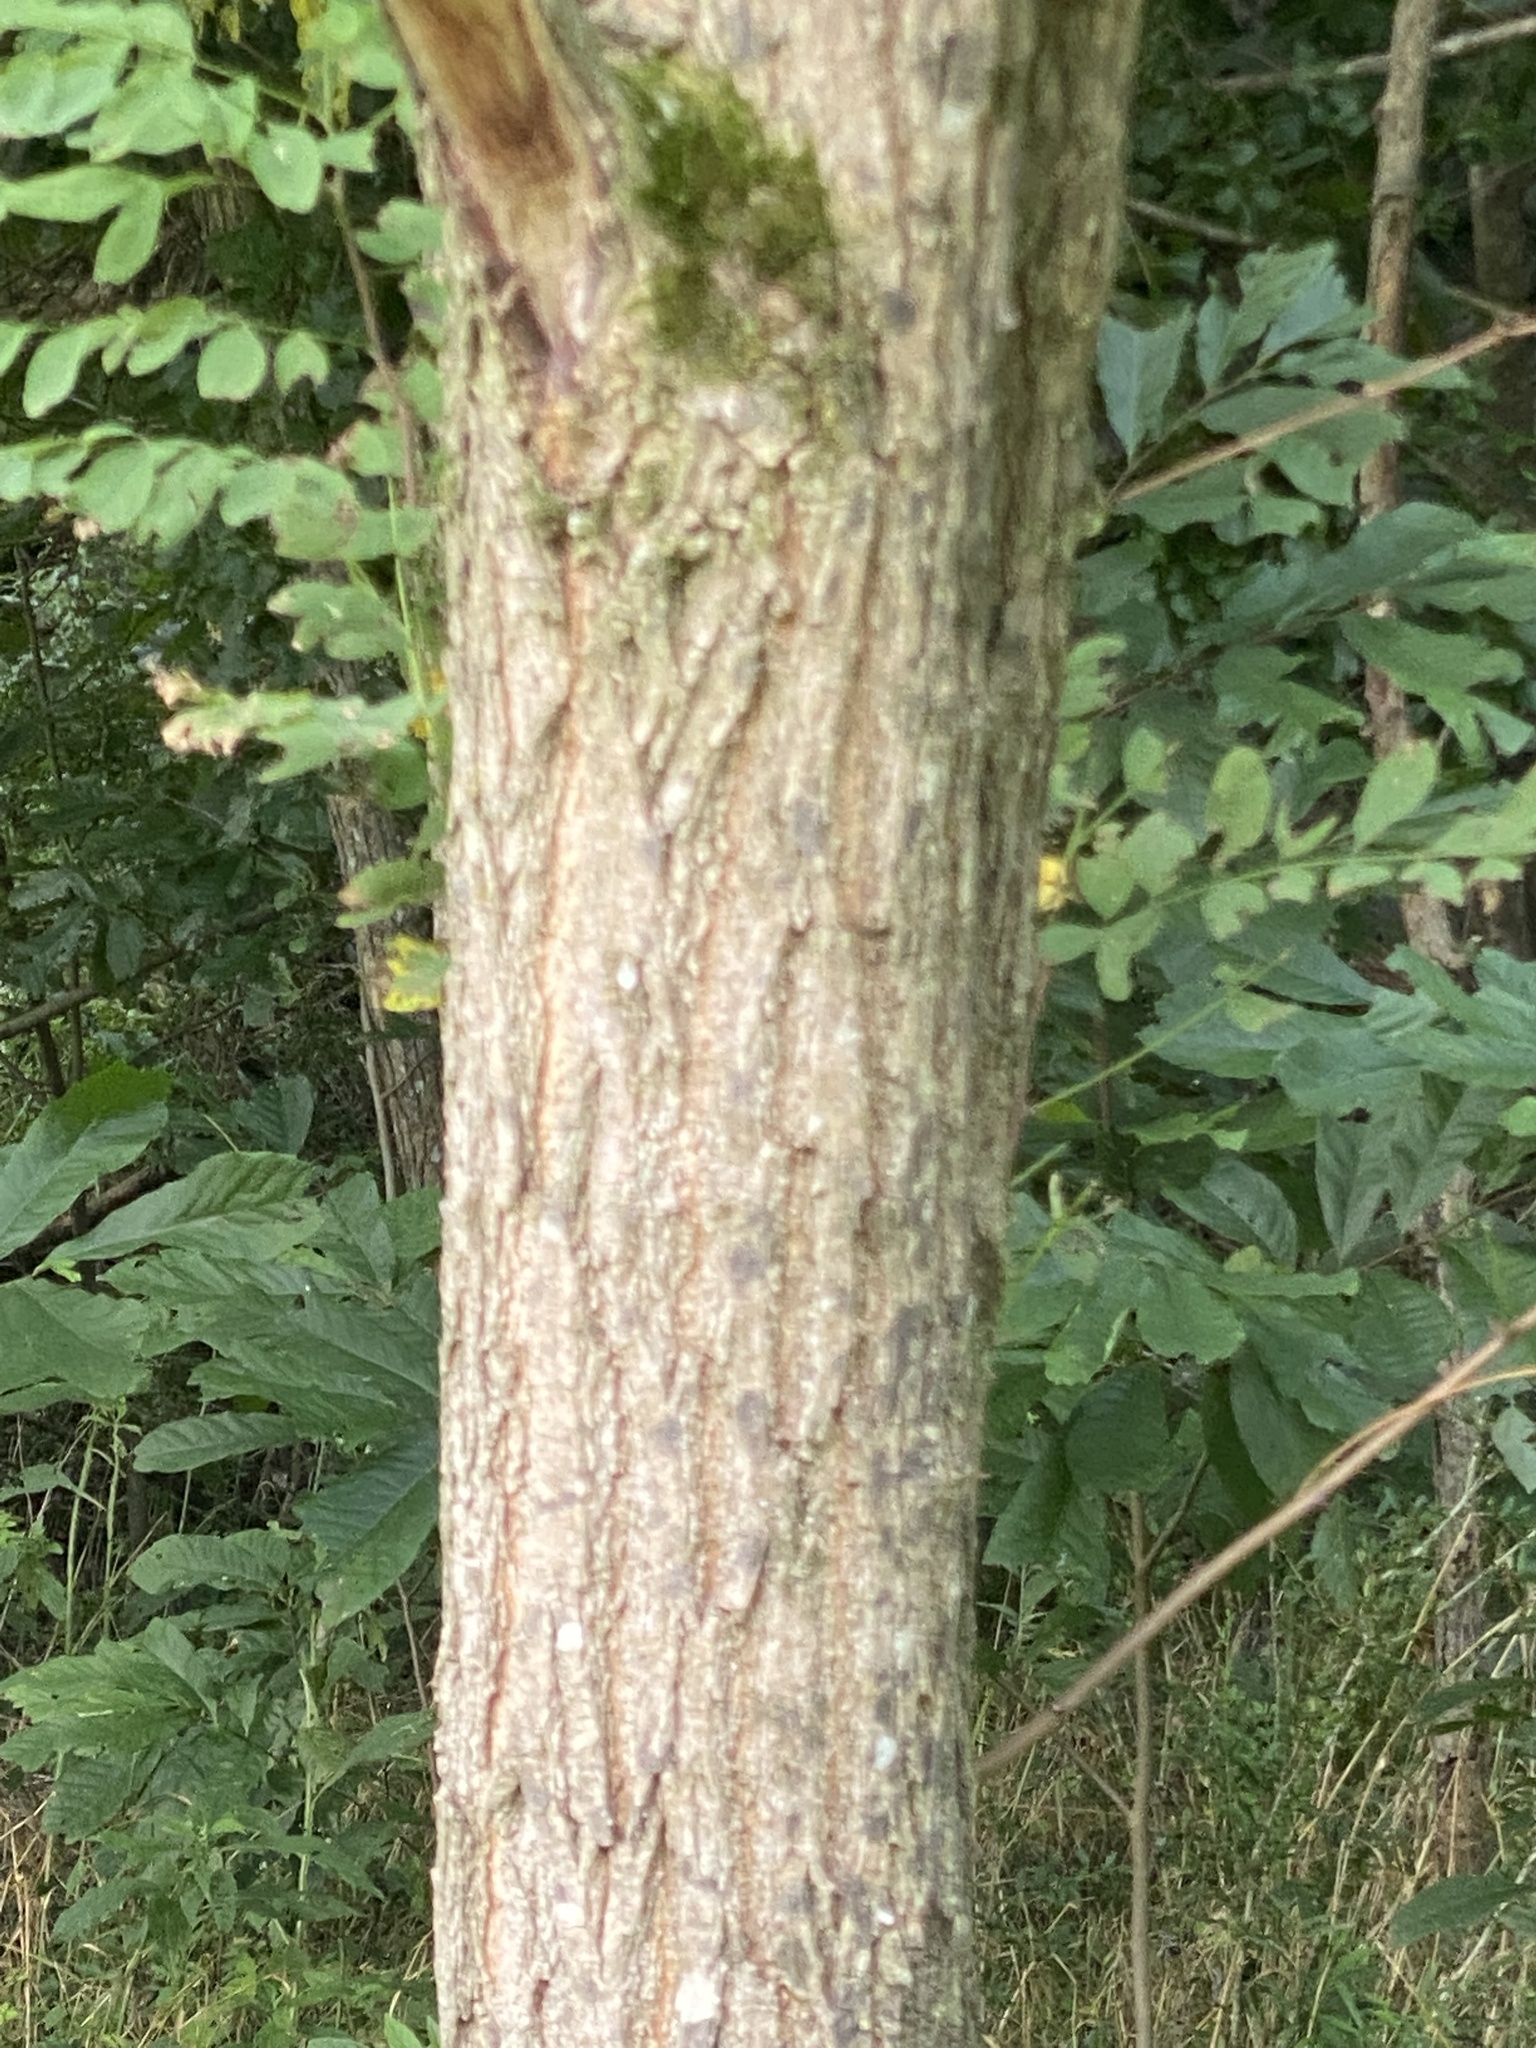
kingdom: Plantae
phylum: Tracheophyta
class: Magnoliopsida
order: Fabales
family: Fabaceae
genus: Robinia
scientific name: Robinia pseudoacacia
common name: Black locust
